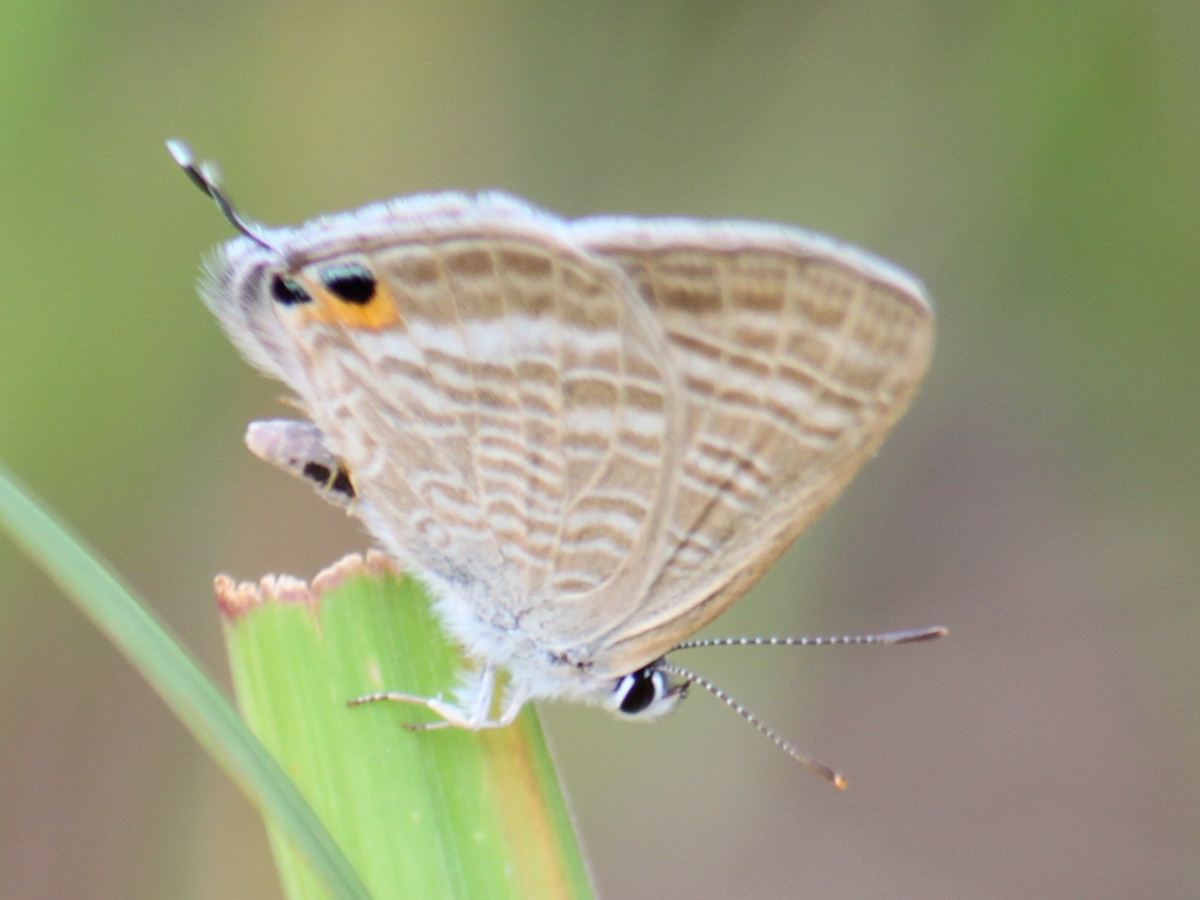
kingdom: Animalia
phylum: Arthropoda
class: Insecta
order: Lepidoptera
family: Lycaenidae
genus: Lampides
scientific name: Lampides boeticus
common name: Long-tailed blue
